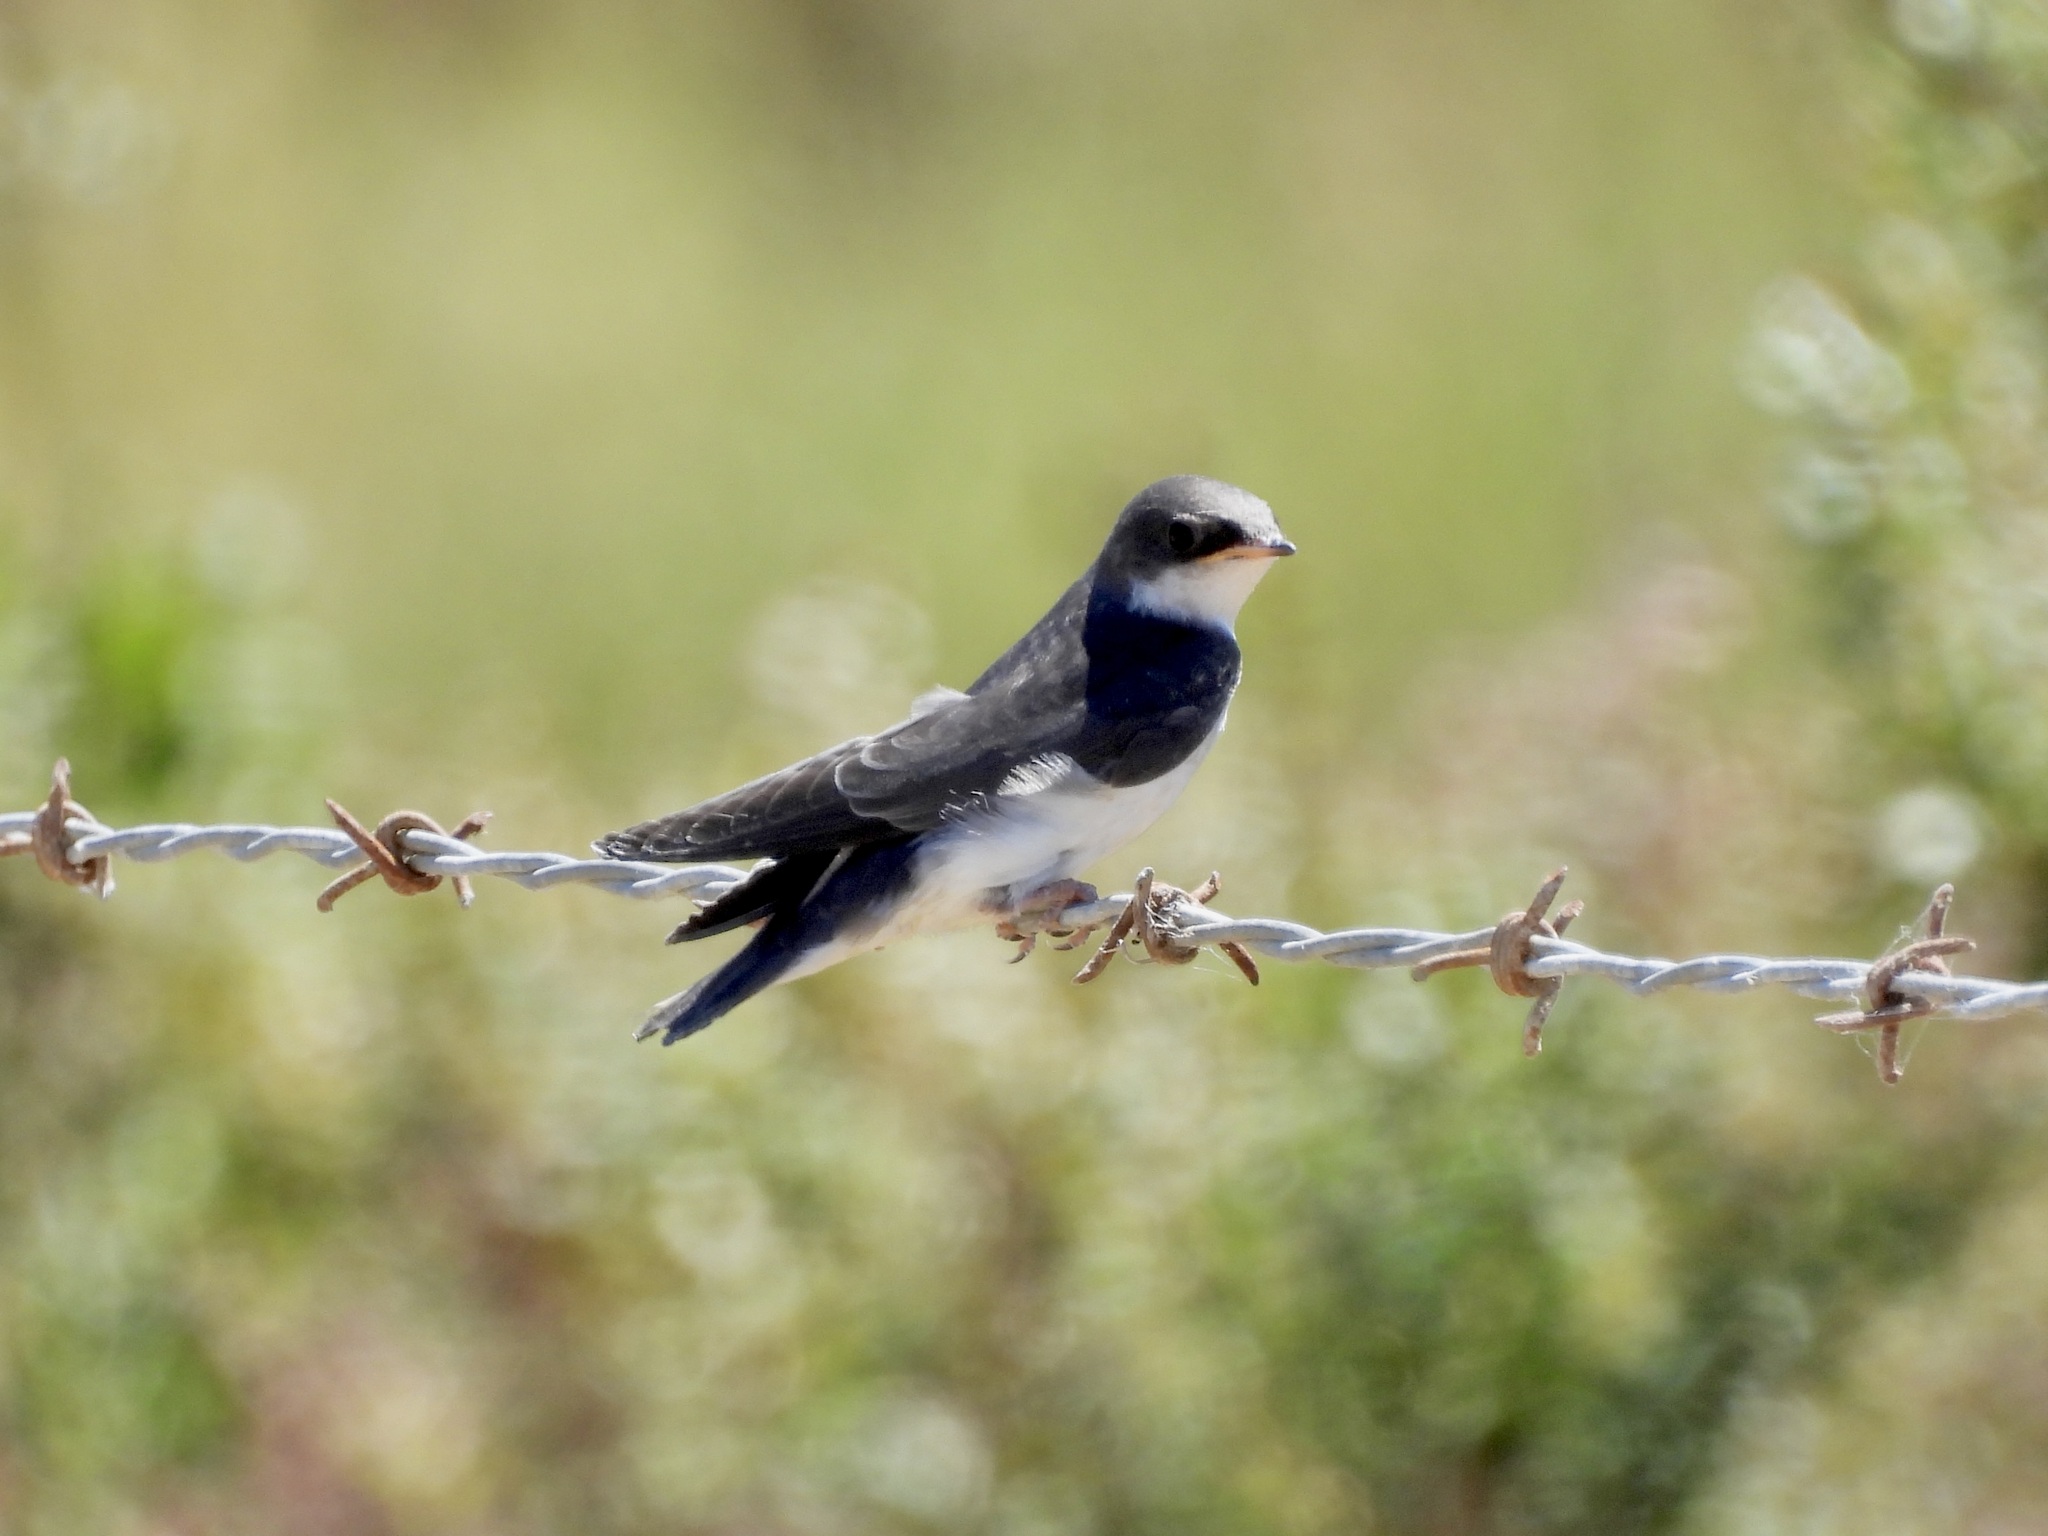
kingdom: Animalia
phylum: Chordata
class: Aves
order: Passeriformes
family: Hirundinidae
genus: Tachycineta
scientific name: Tachycineta bicolor
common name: Tree swallow
